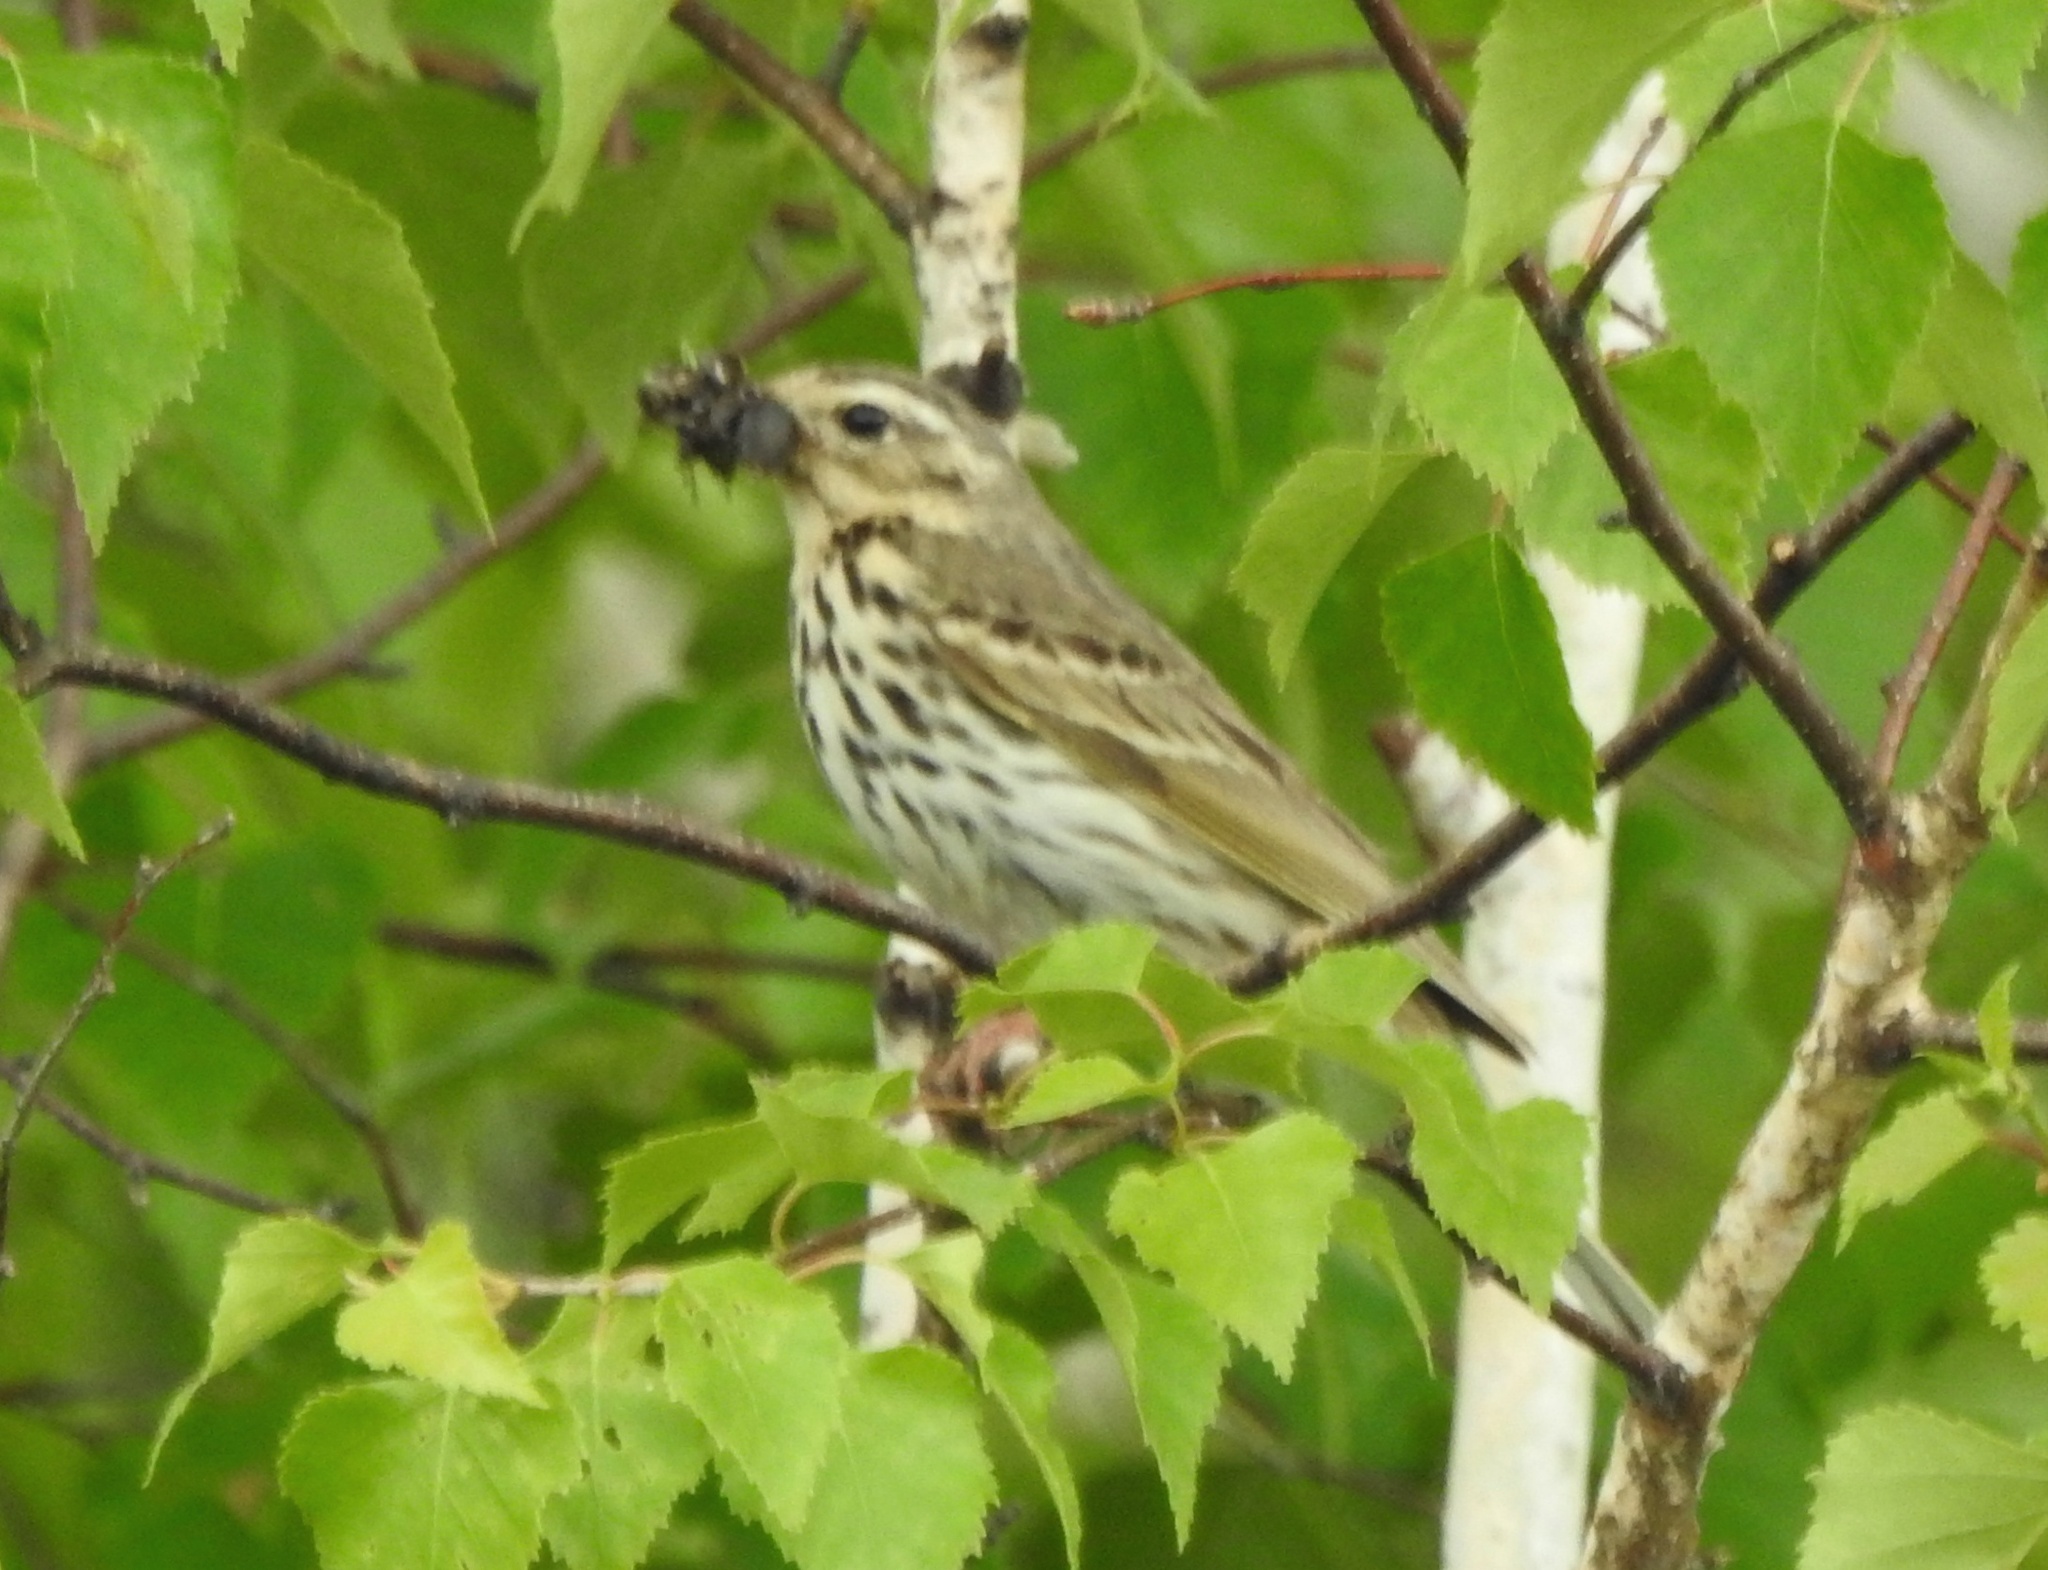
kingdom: Animalia
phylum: Chordata
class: Aves
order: Passeriformes
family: Motacillidae
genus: Anthus
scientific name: Anthus hodgsoni
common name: Olive-backed pipit
